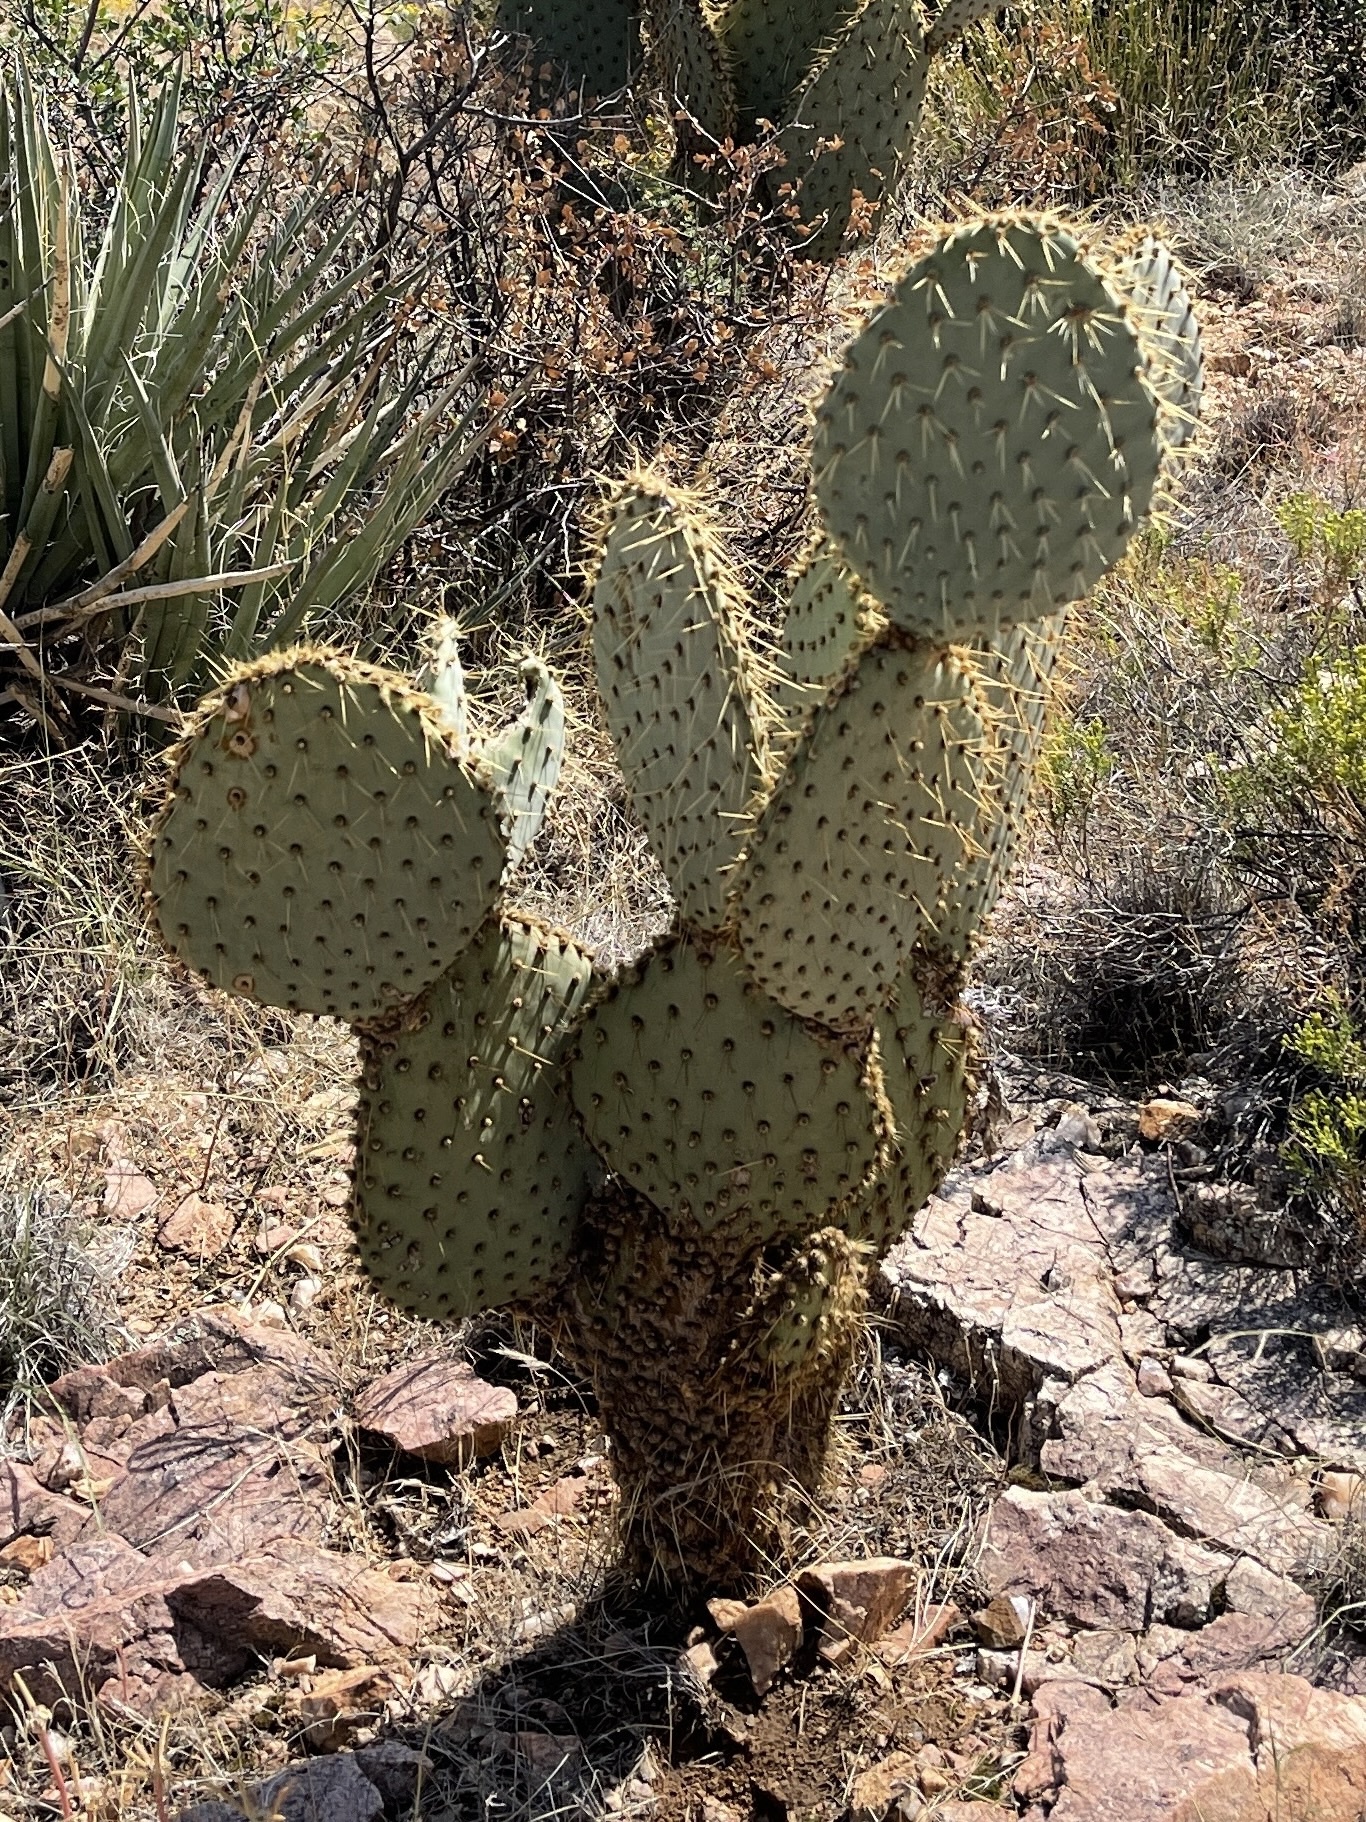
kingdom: Plantae
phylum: Tracheophyta
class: Magnoliopsida
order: Caryophyllales
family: Cactaceae
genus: Opuntia
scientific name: Opuntia chlorotica
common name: Dollar-joint prickly-pear
